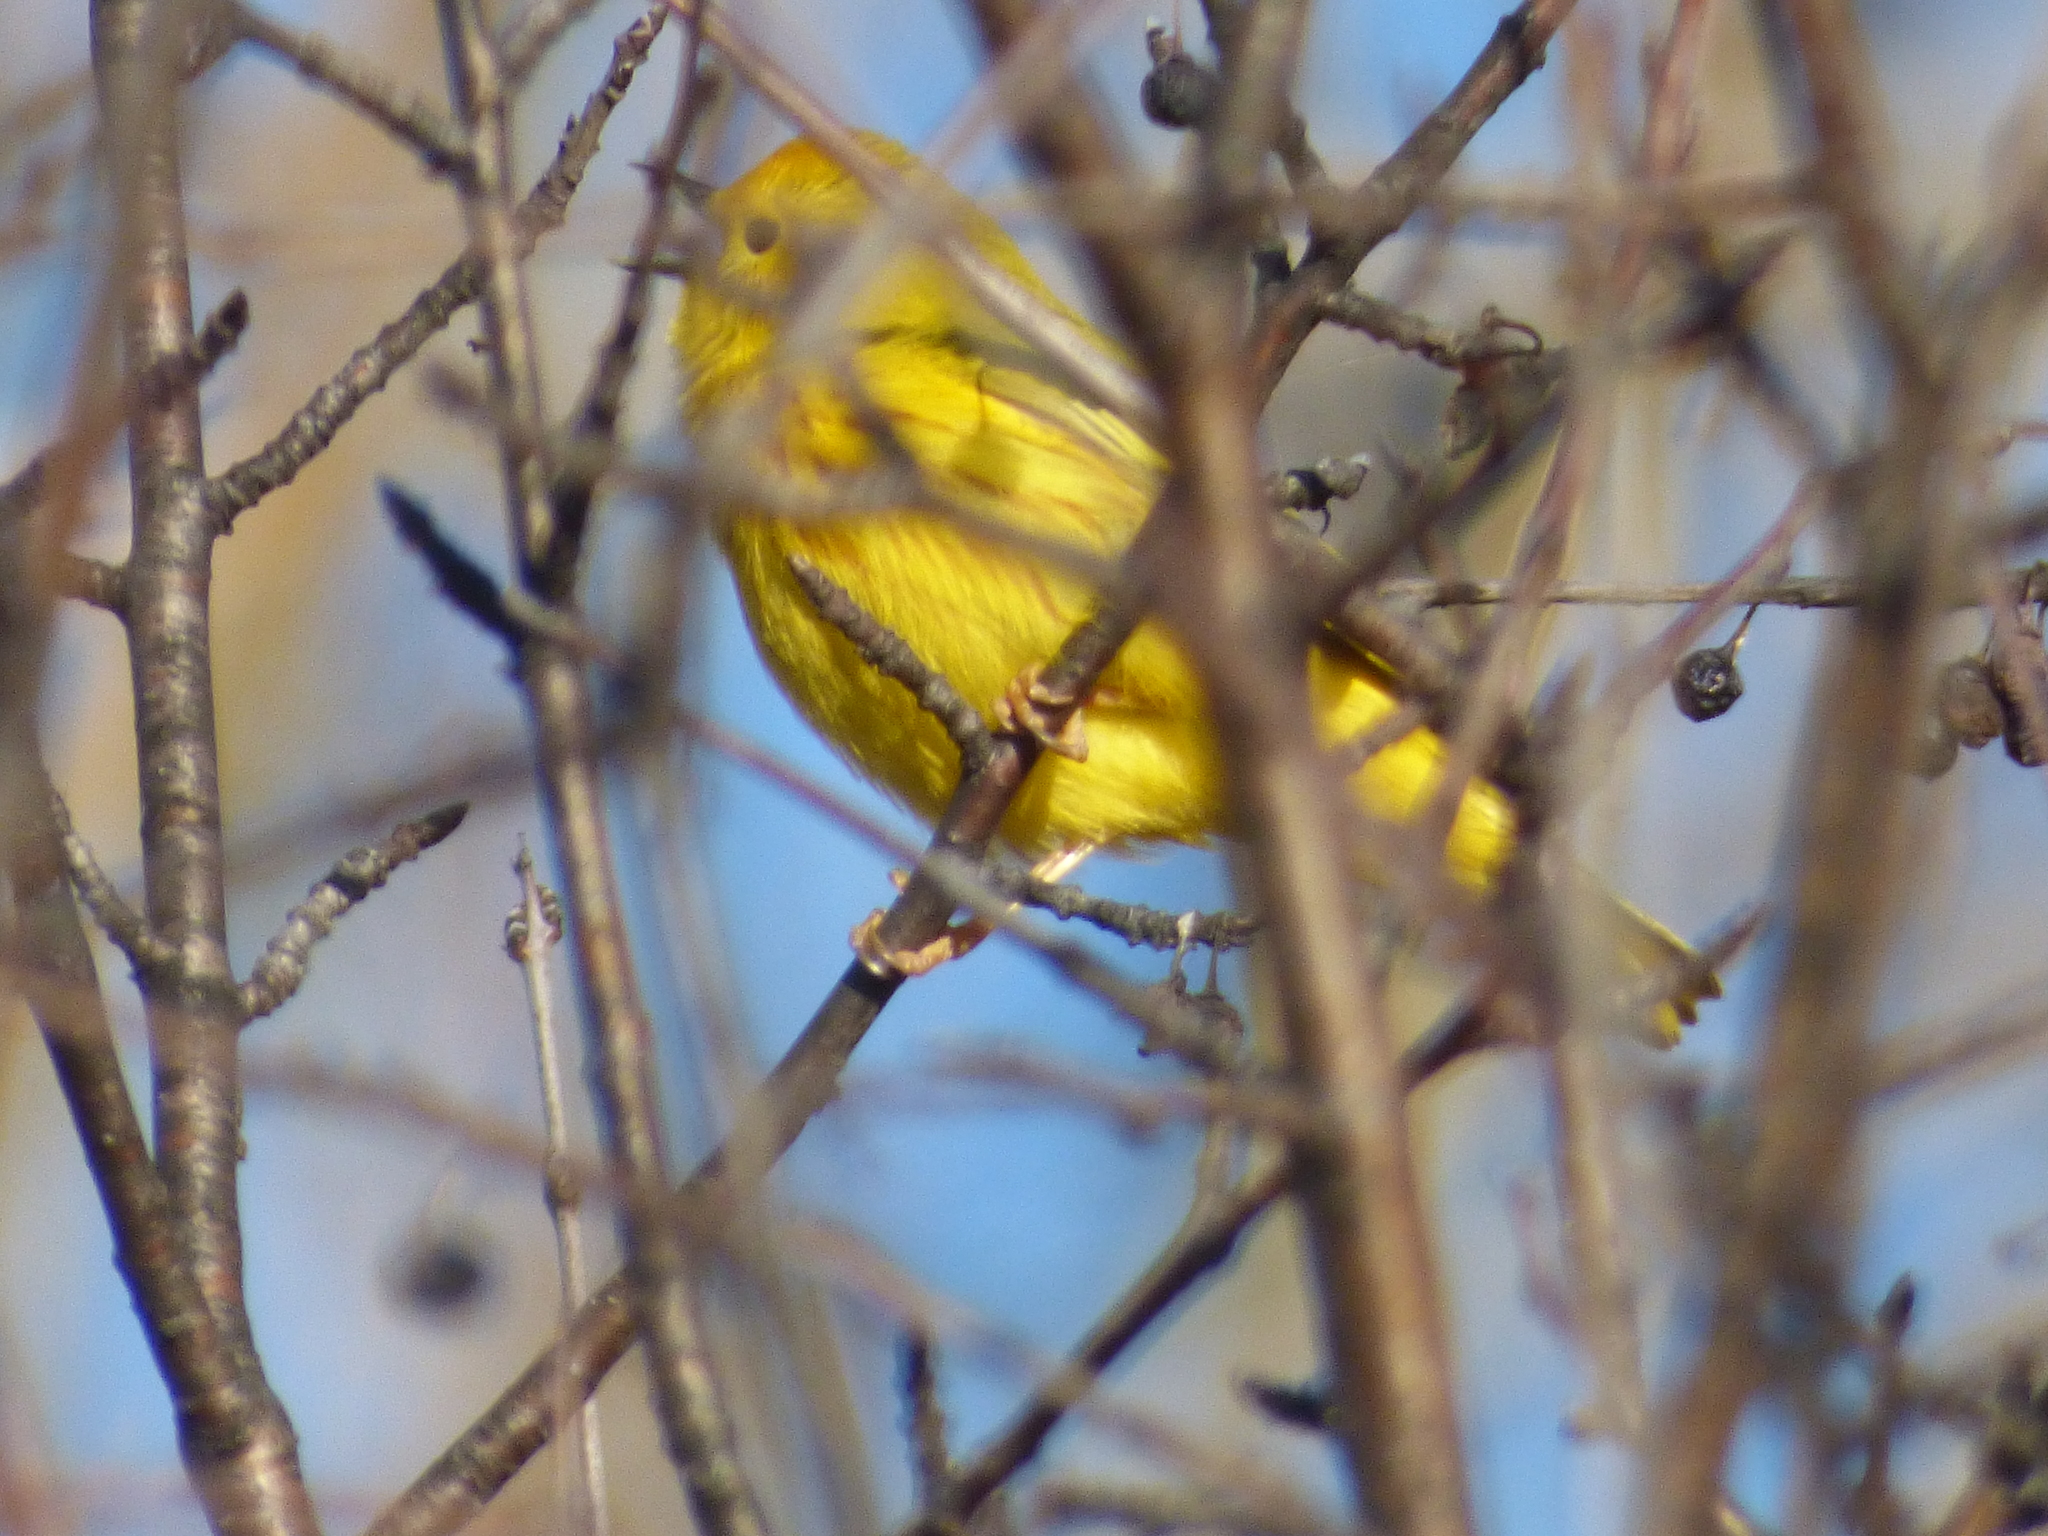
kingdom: Animalia
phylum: Chordata
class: Aves
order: Passeriformes
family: Parulidae
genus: Setophaga
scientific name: Setophaga petechia
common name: Yellow warbler
